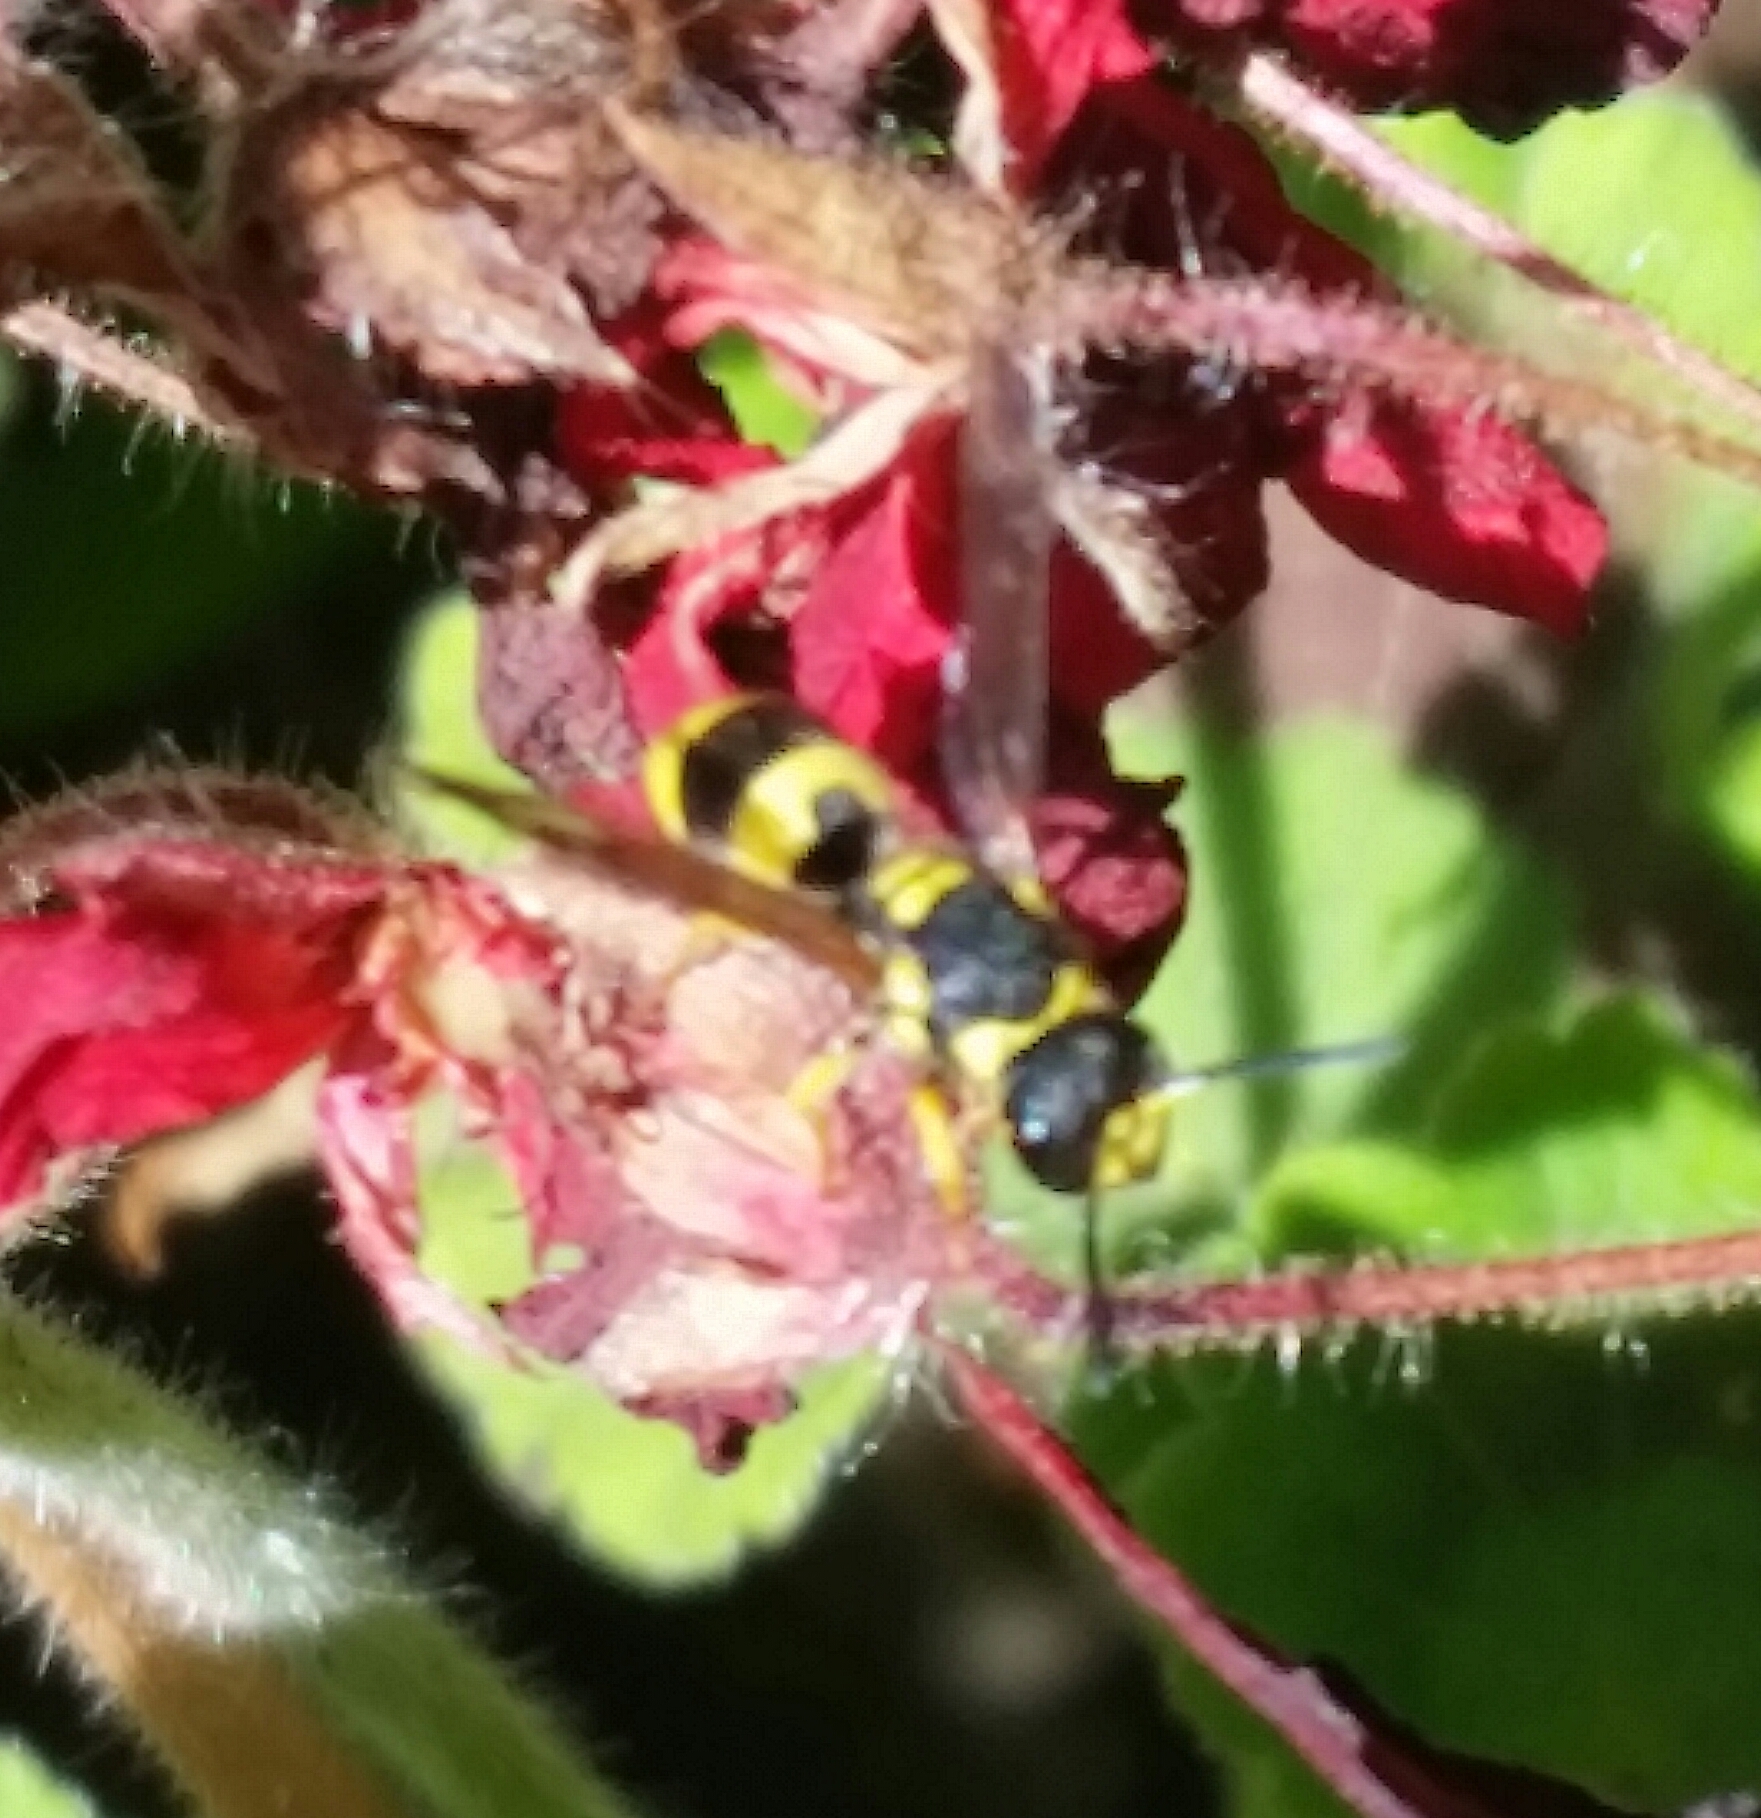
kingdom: Animalia
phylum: Arthropoda
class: Insecta
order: Hymenoptera
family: Vespidae
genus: Ancistrocerus
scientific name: Ancistrocerus gazella
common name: European tube wasp
